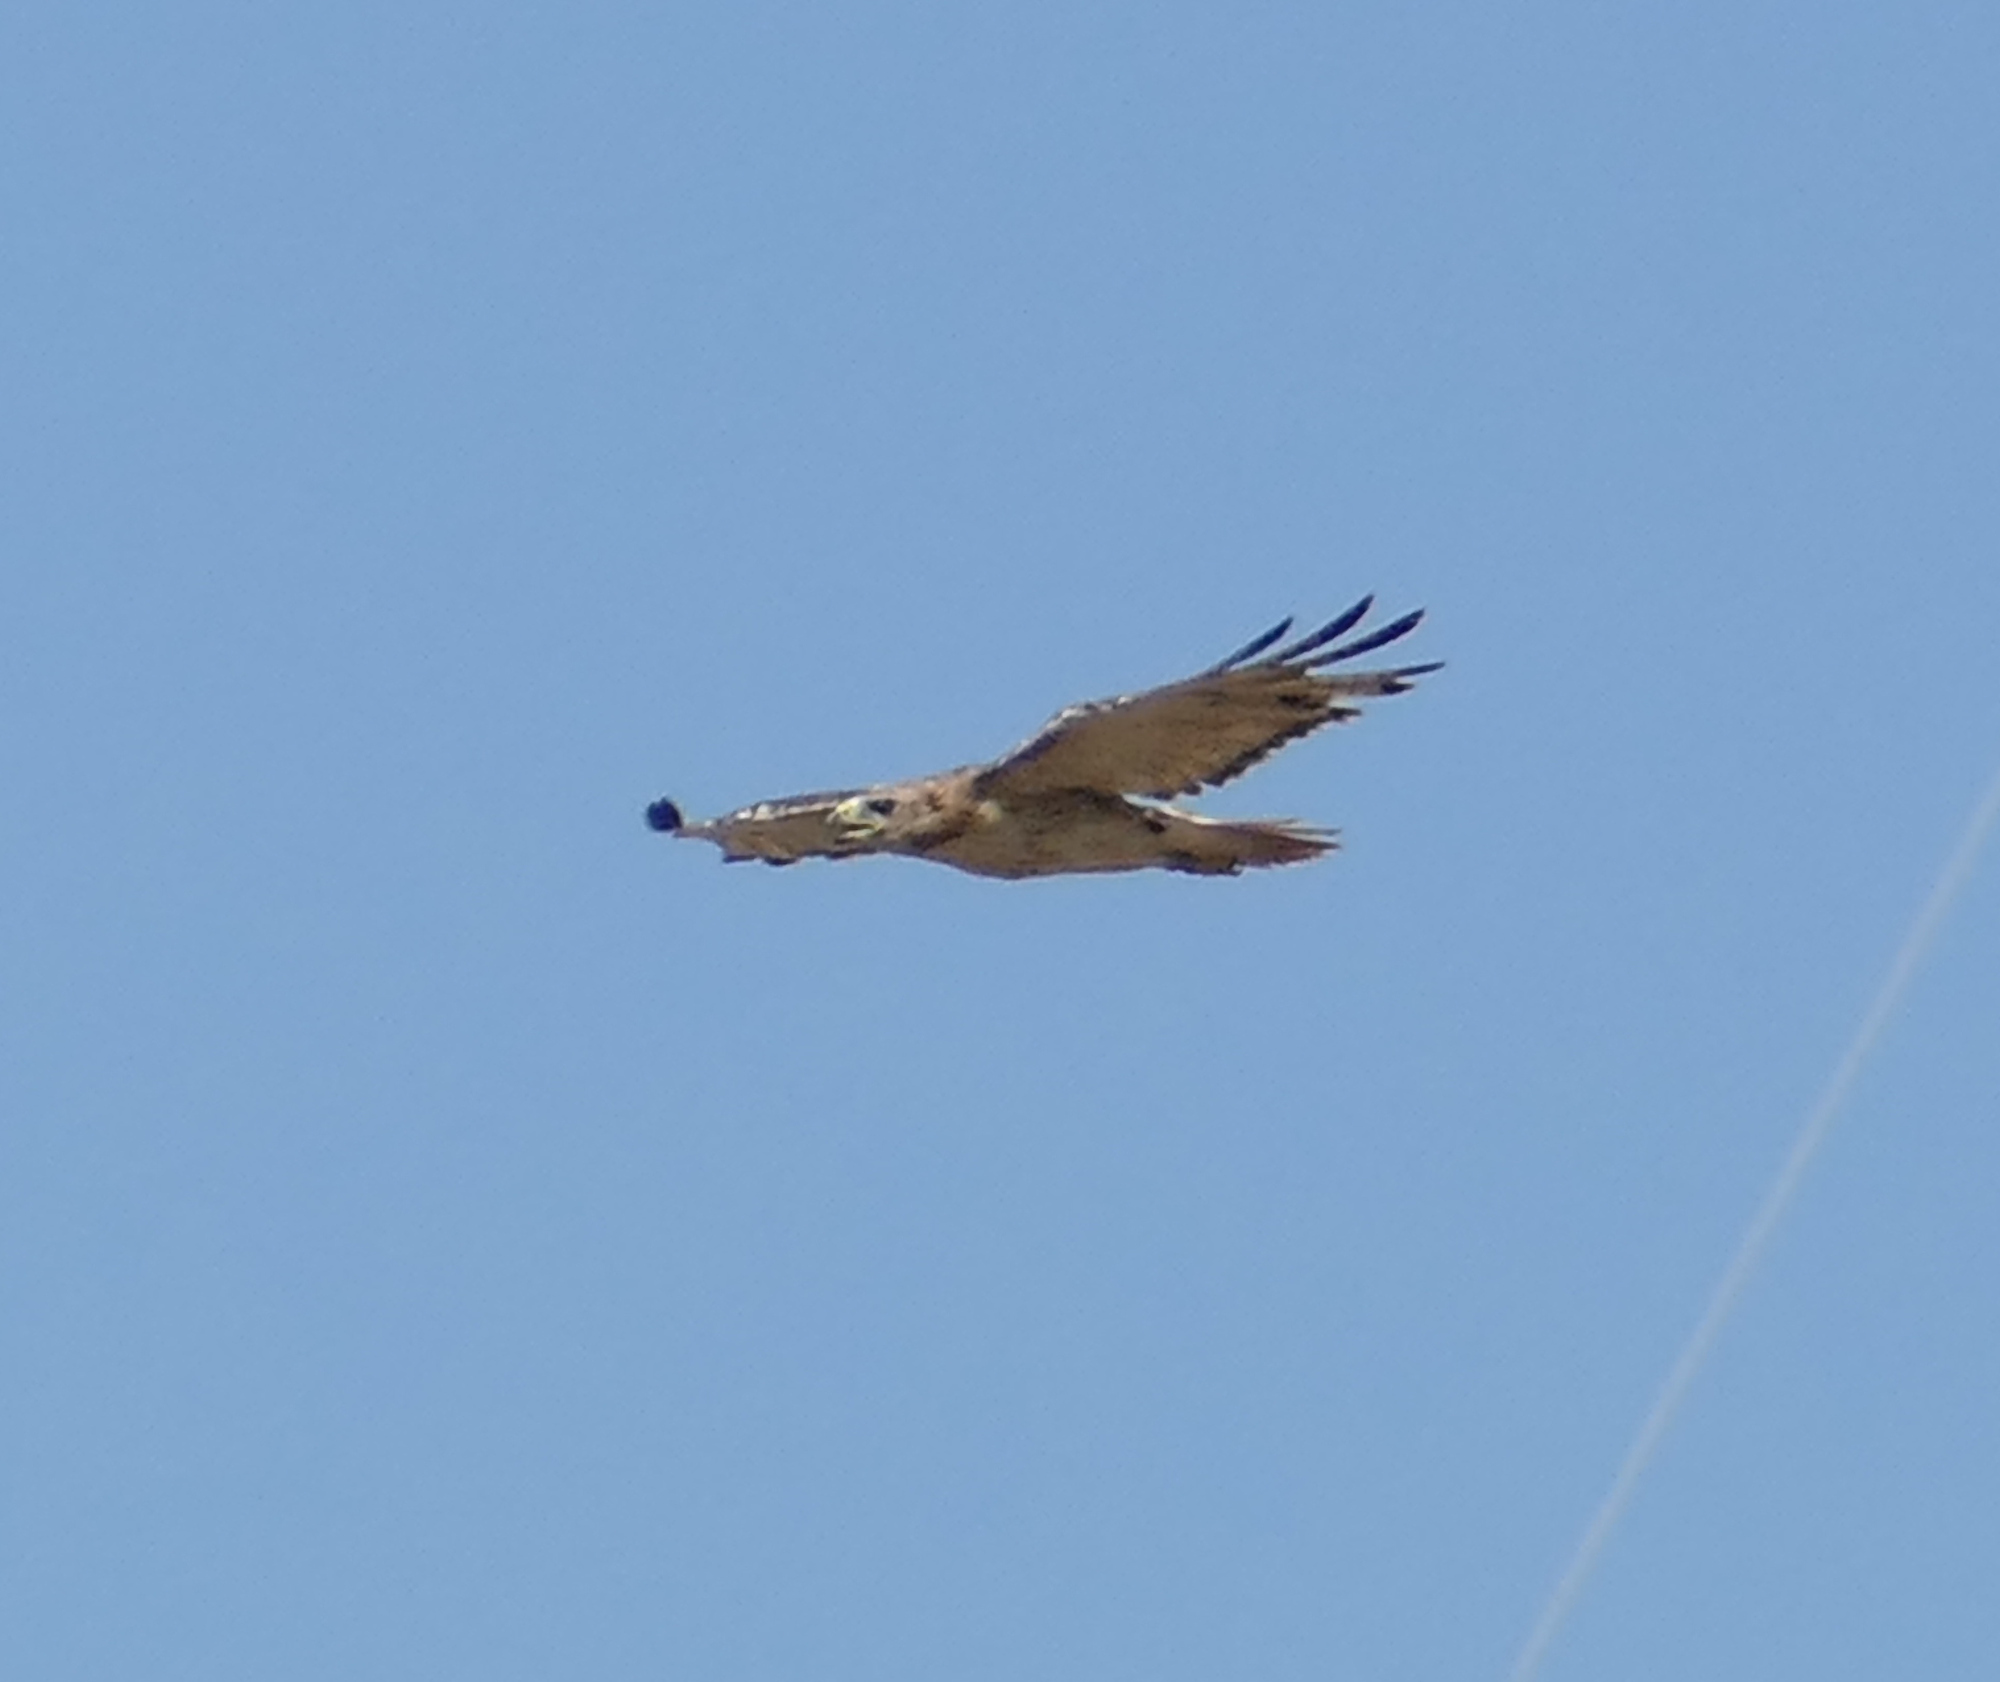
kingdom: Animalia
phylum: Chordata
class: Aves
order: Accipitriformes
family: Accipitridae
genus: Buteo
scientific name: Buteo jamaicensis
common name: Red-tailed hawk
